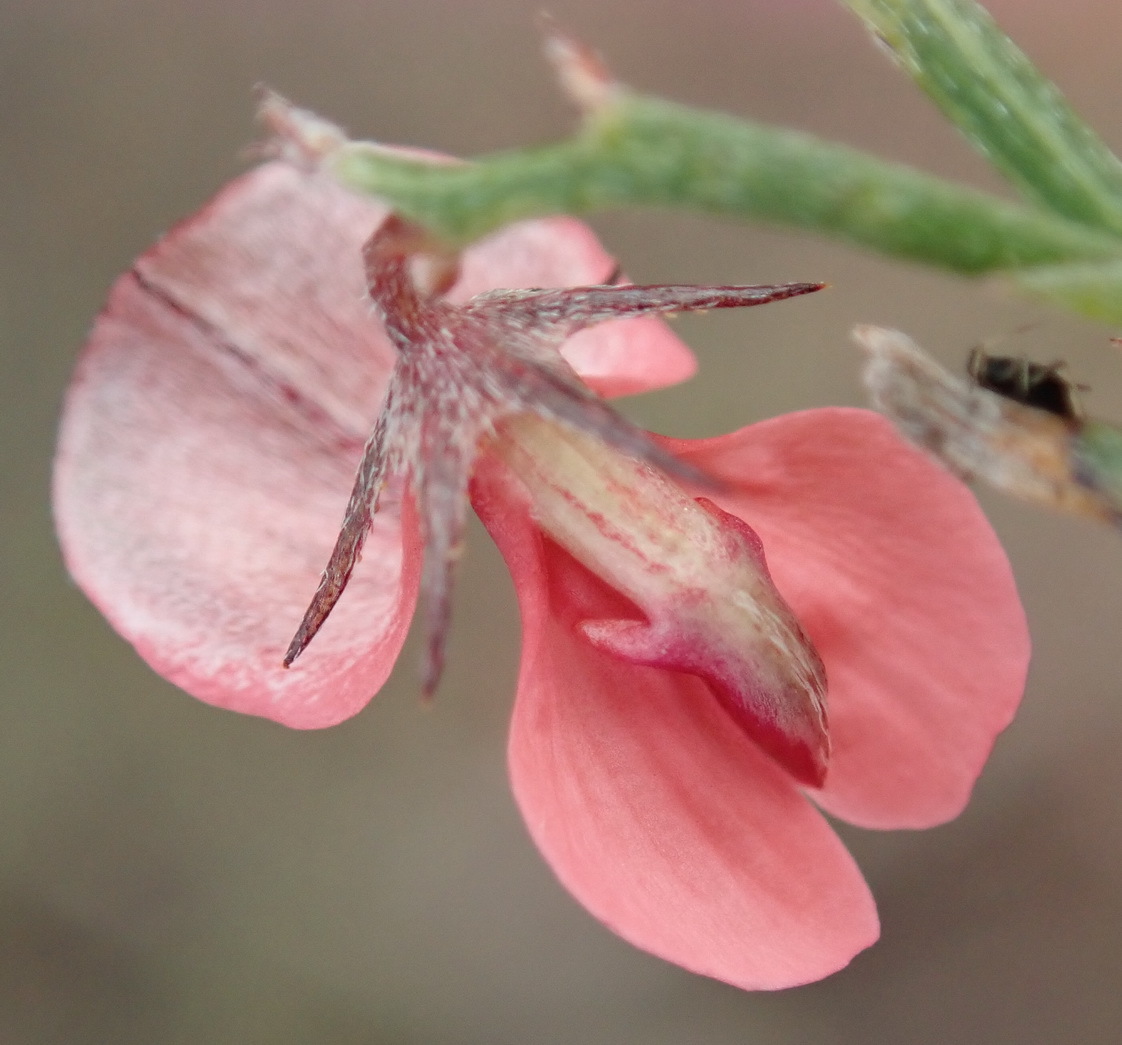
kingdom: Plantae
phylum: Tracheophyta
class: Magnoliopsida
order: Fabales
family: Fabaceae
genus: Indigofera
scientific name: Indigofera leptocarpa
